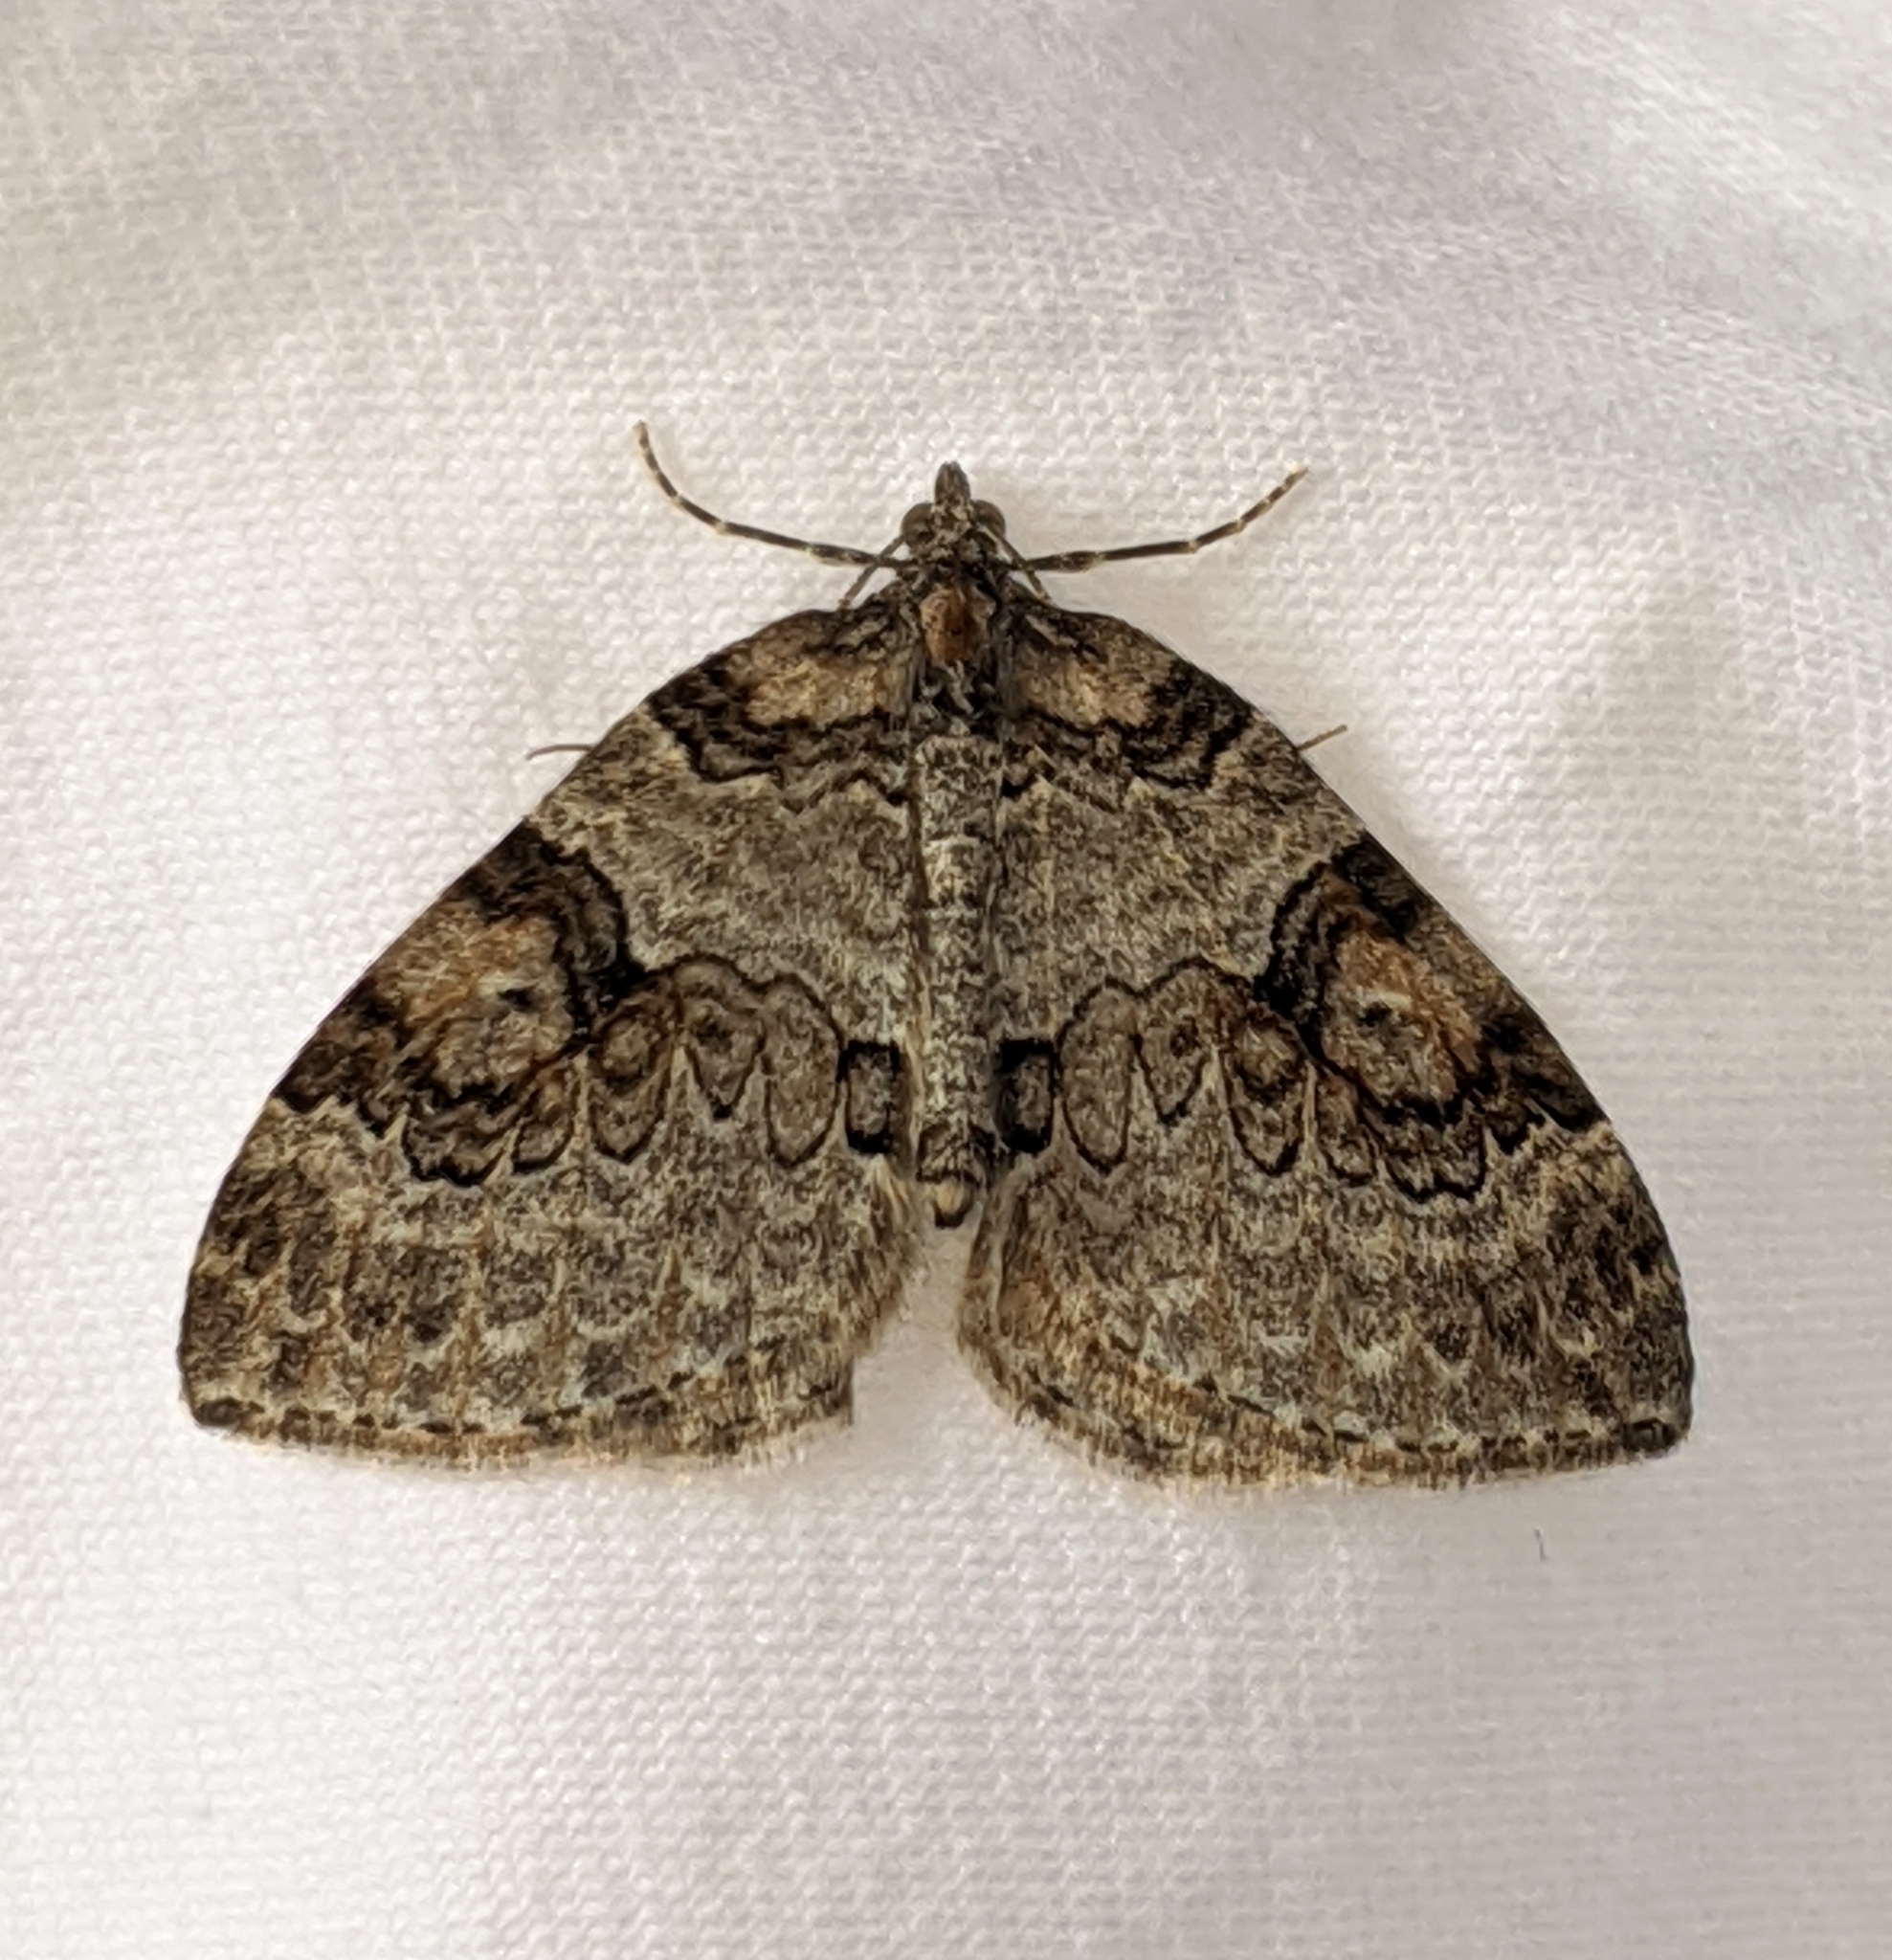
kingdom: Animalia
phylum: Arthropoda
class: Insecta
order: Lepidoptera
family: Geometridae
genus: Plemyria
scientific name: Plemyria georgii
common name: George's carpet moth
